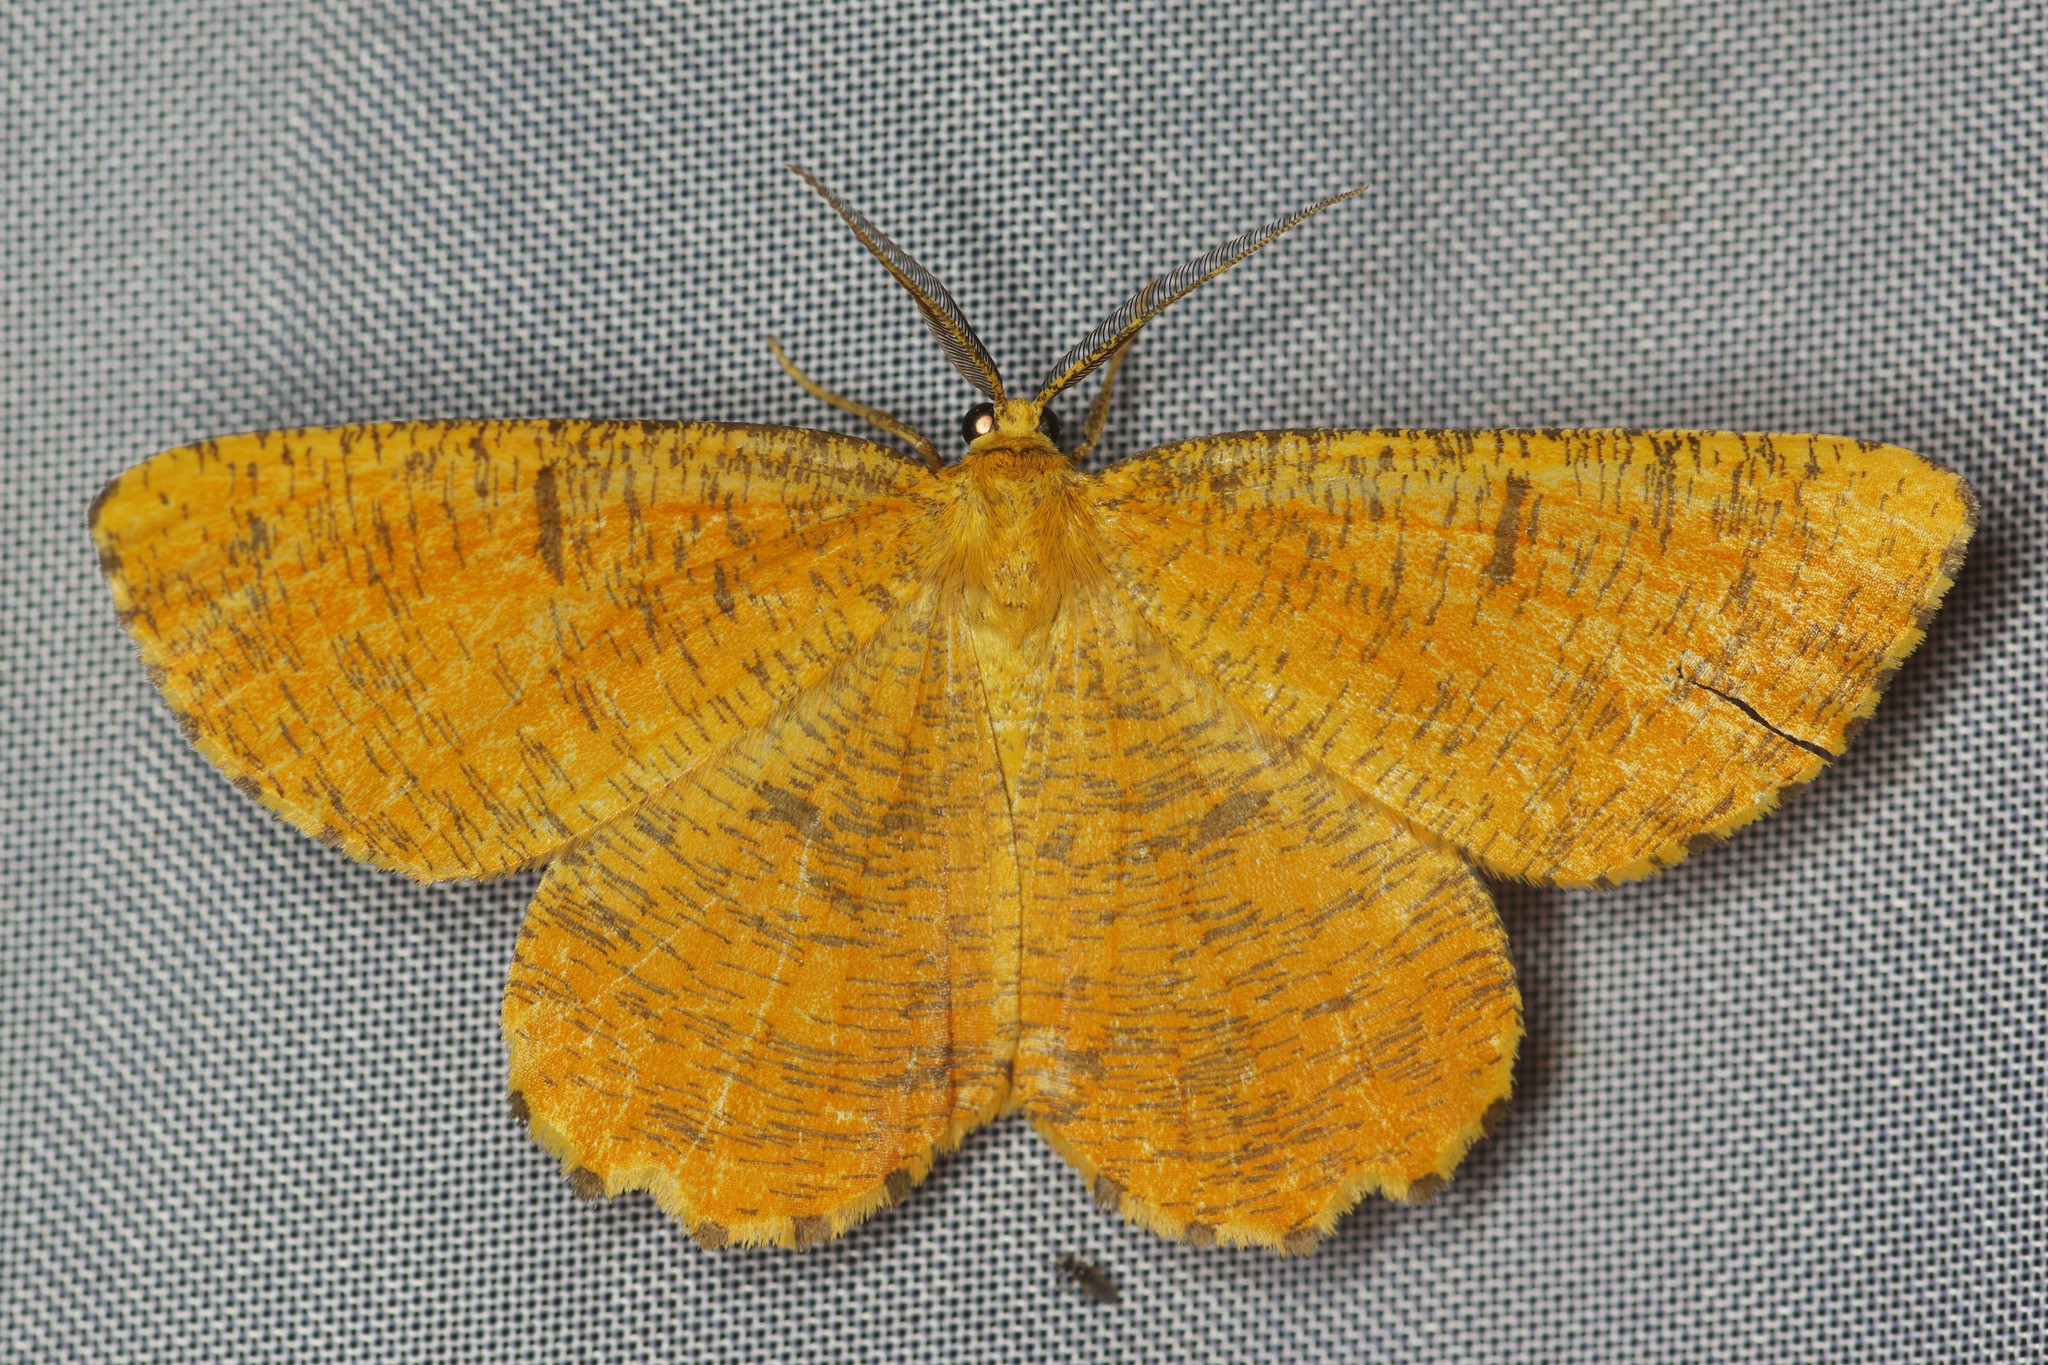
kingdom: Animalia
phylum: Arthropoda
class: Insecta
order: Lepidoptera
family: Geometridae
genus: Angerona
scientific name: Angerona prunaria
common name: Orange moth
